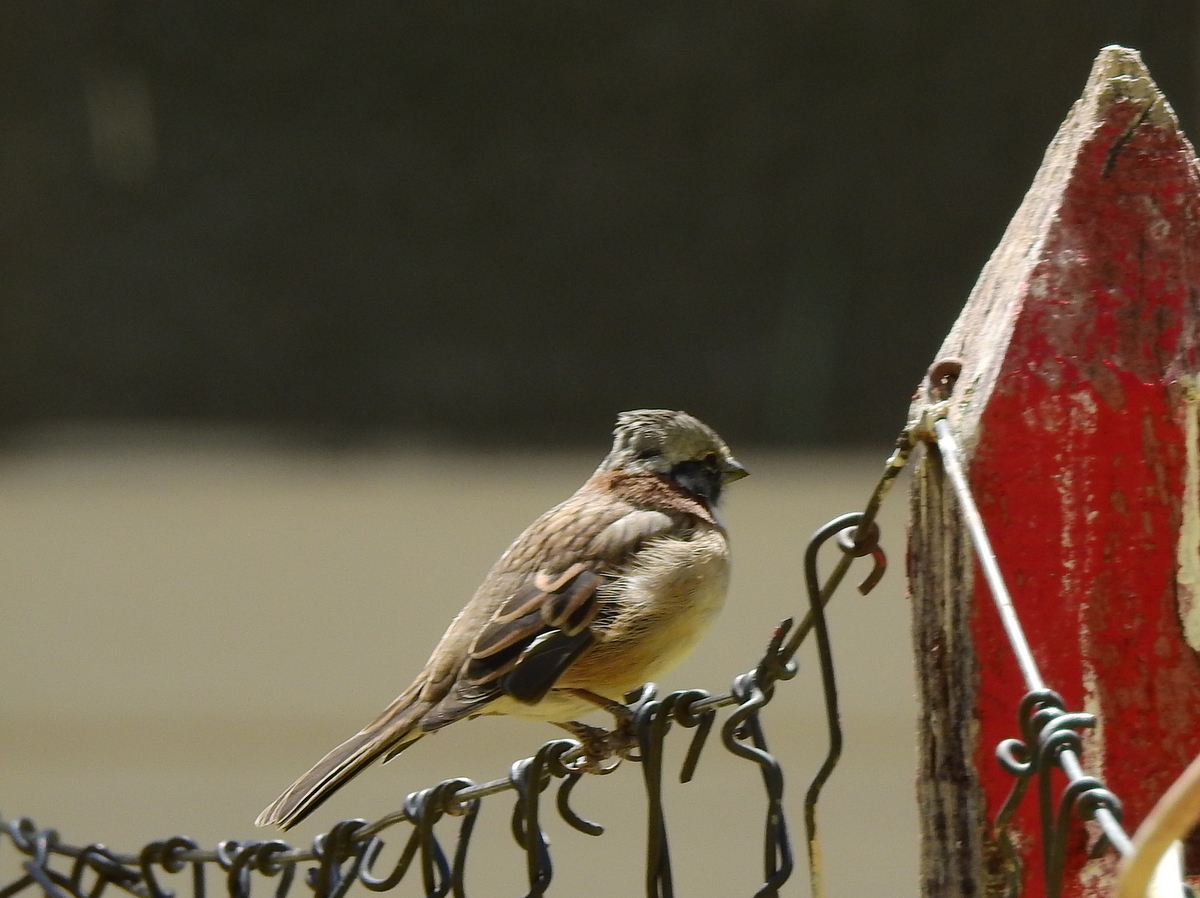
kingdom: Animalia
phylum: Chordata
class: Aves
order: Passeriformes
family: Passerellidae
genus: Zonotrichia
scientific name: Zonotrichia capensis
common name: Rufous-collared sparrow
